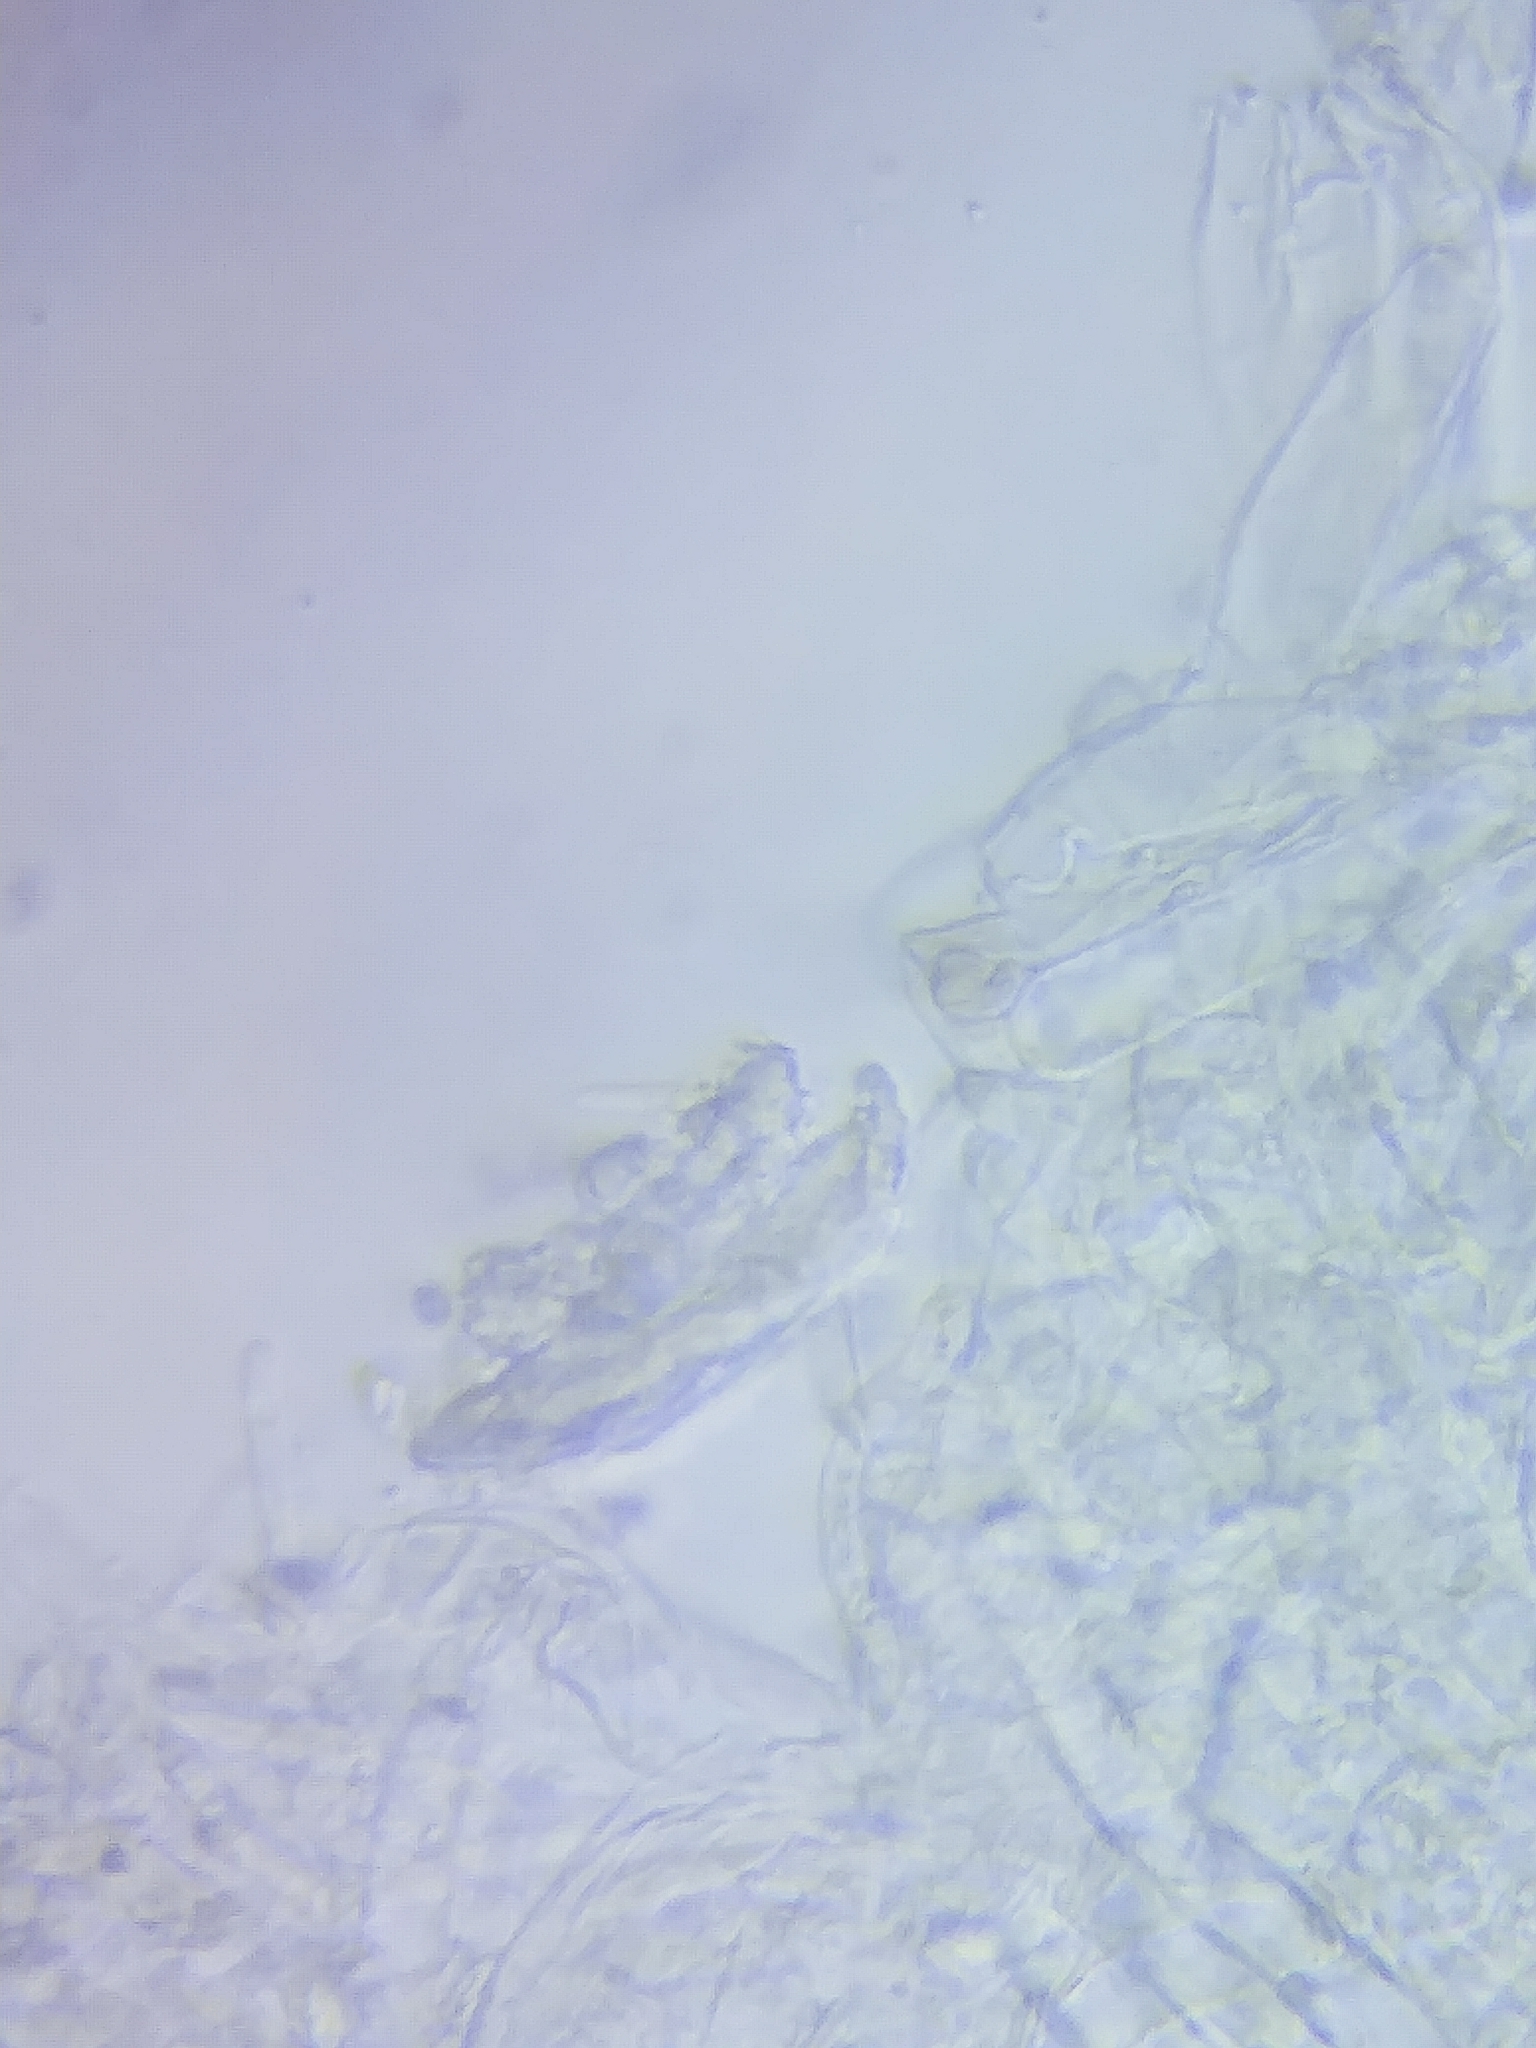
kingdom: Fungi
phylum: Basidiomycota
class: Agaricomycetes
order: Agaricales
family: Strophariaceae
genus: Hypholoma
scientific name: Hypholoma capnoides
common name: Conifer tuft
